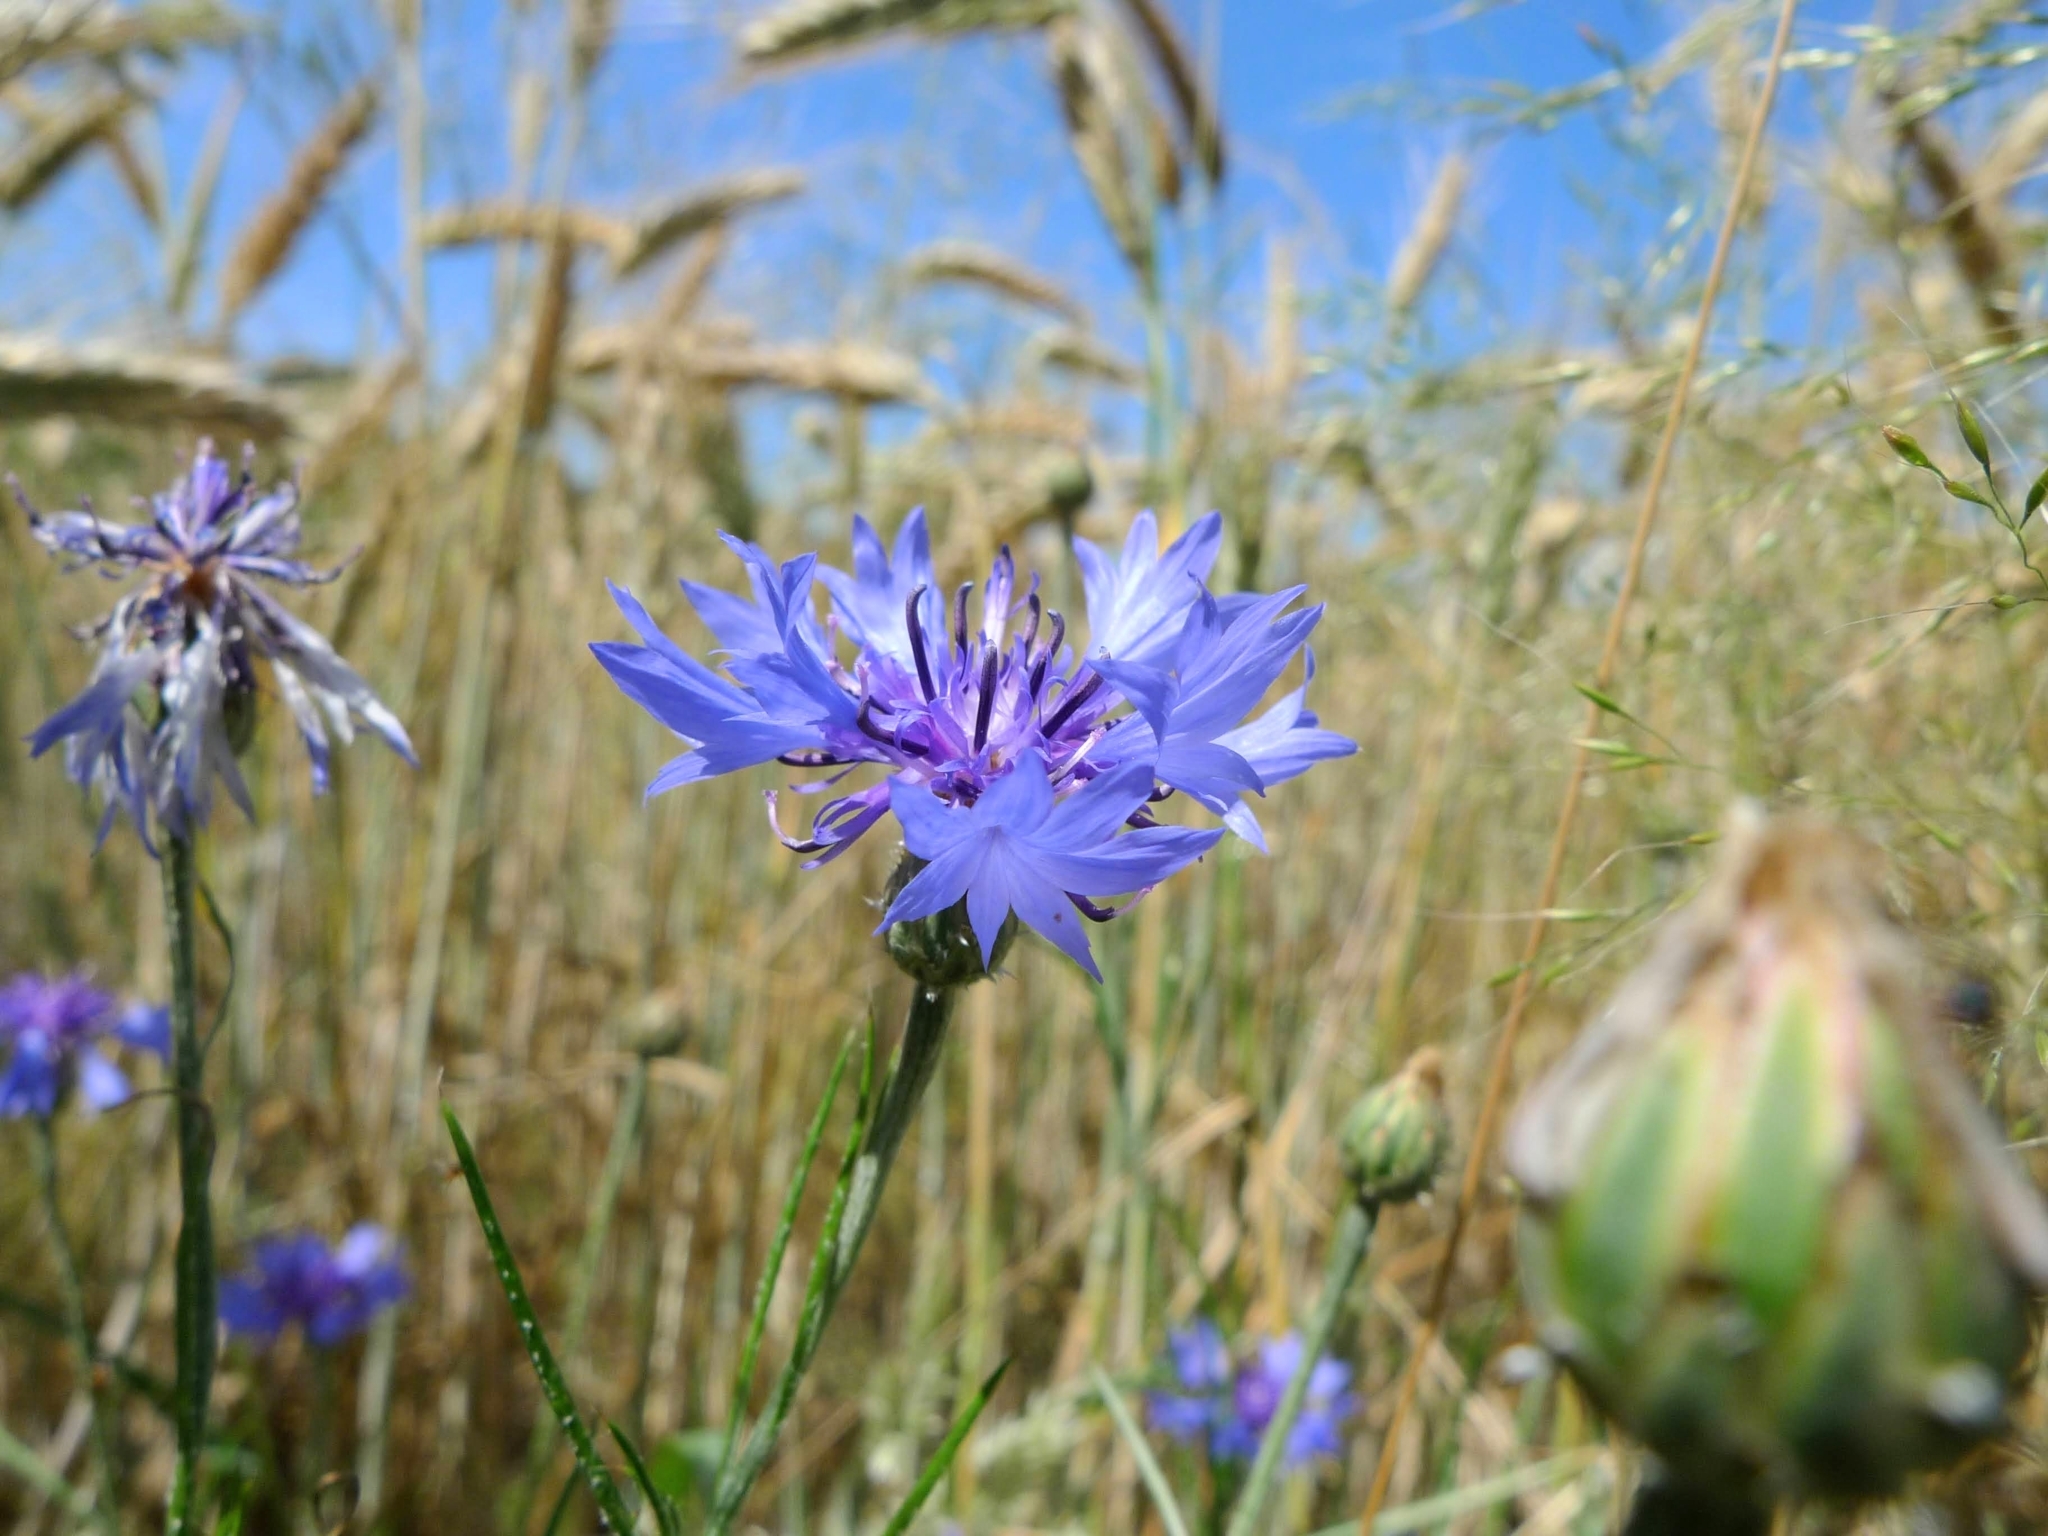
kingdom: Plantae
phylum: Tracheophyta
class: Magnoliopsida
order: Asterales
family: Asteraceae
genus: Centaurea
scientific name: Centaurea cyanus
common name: Cornflower
